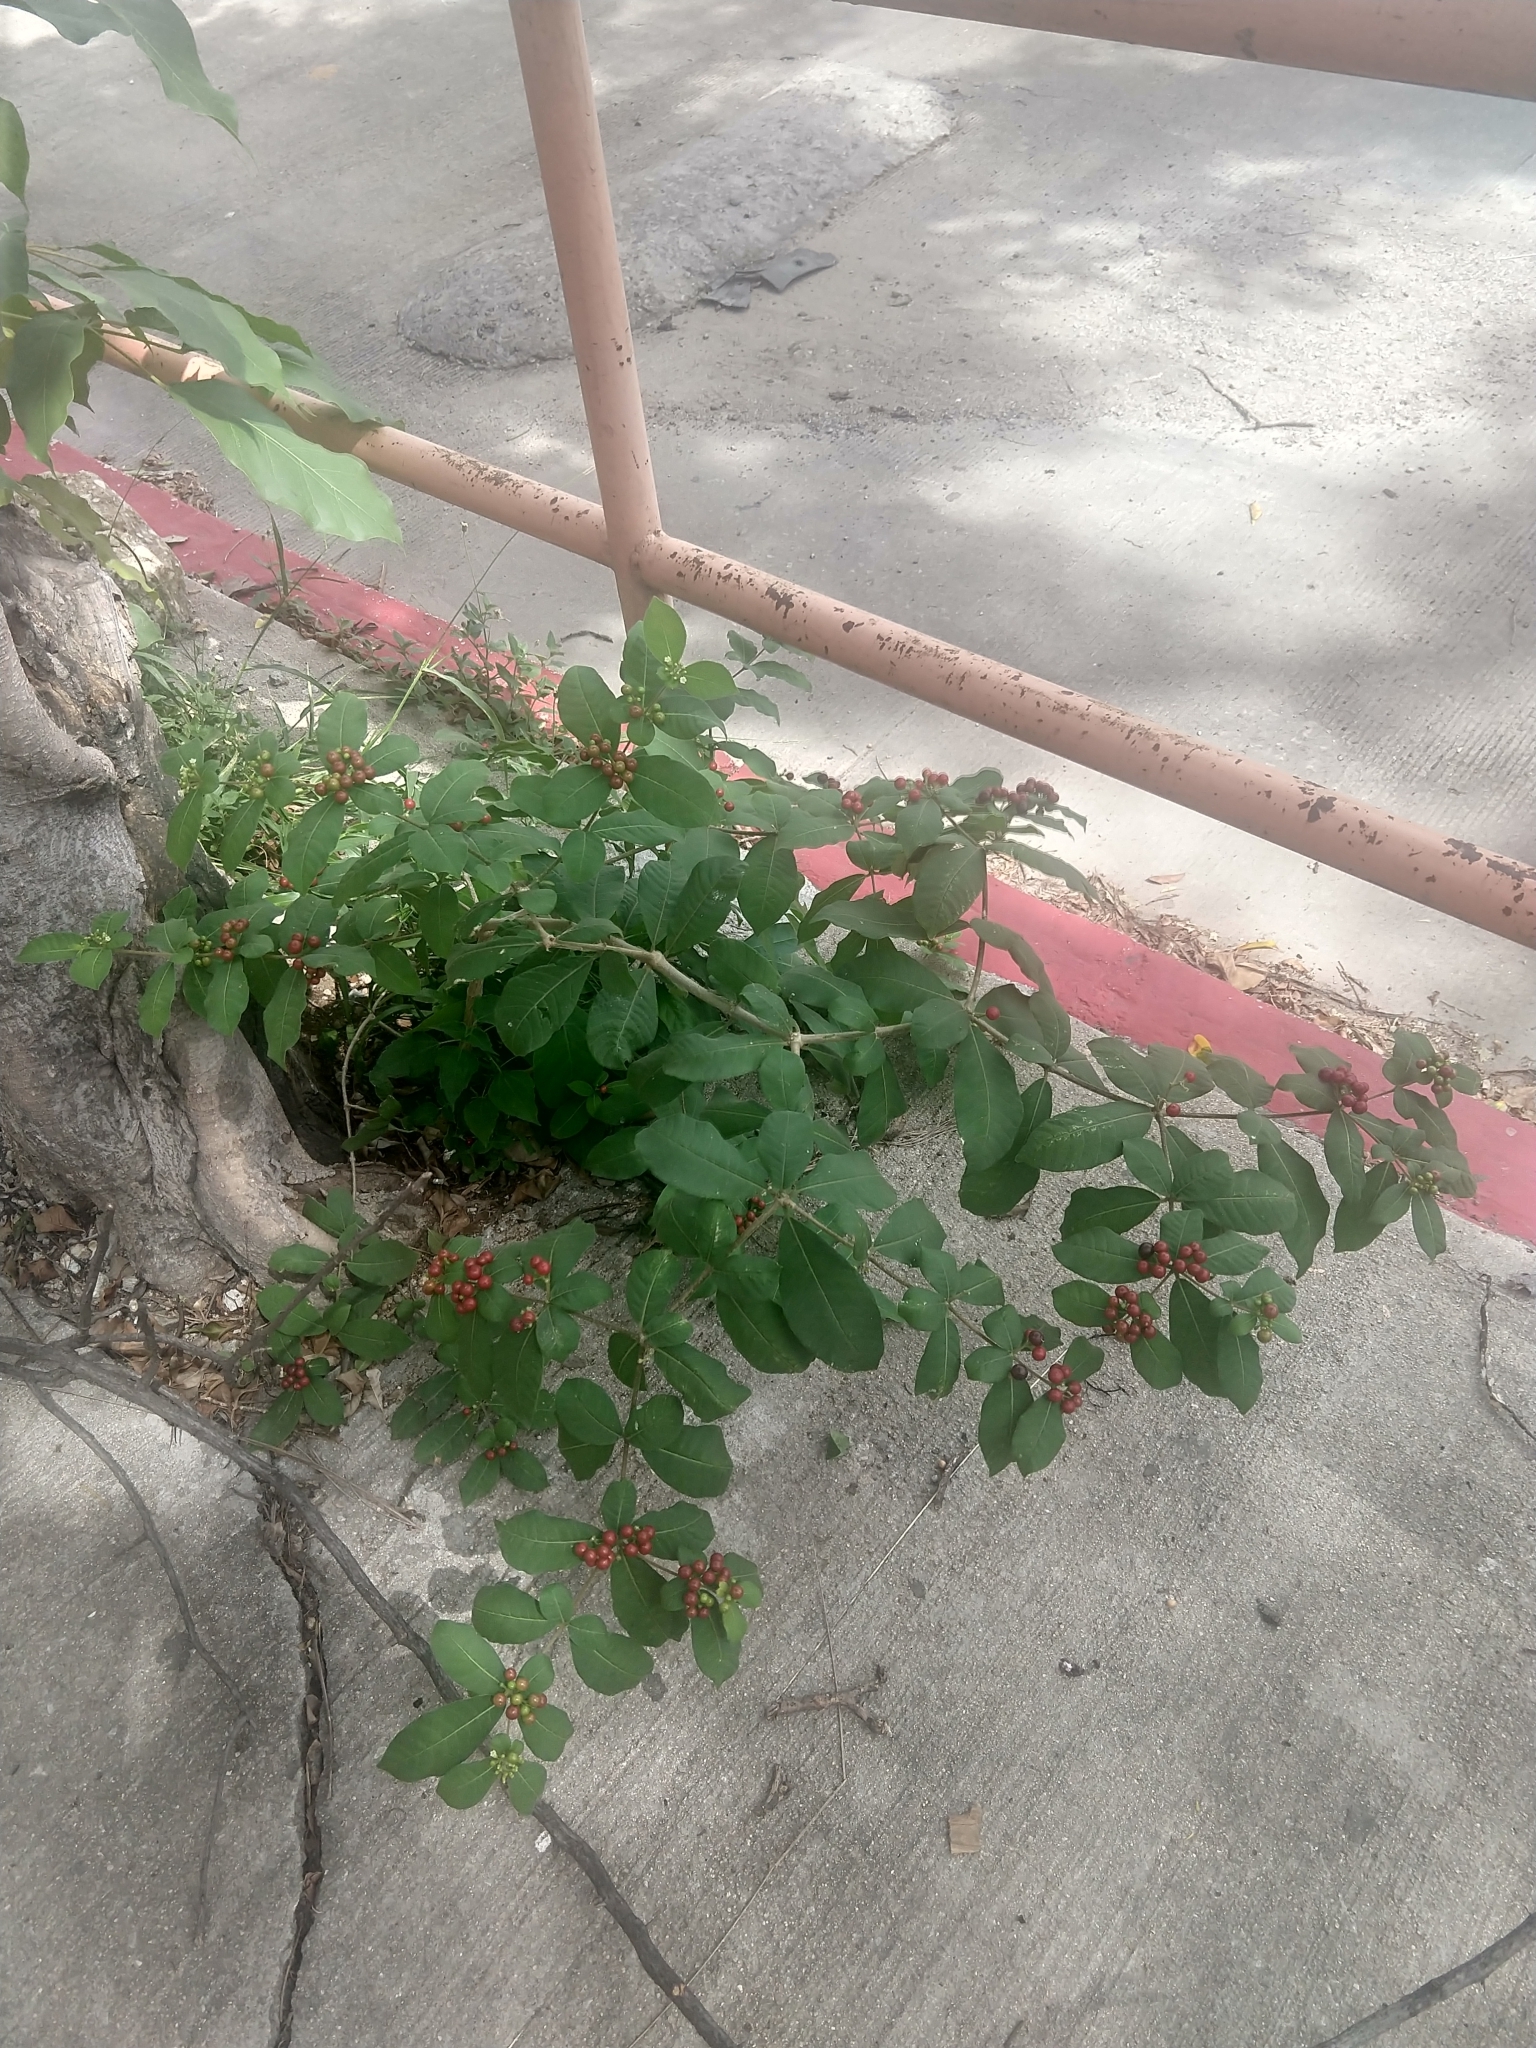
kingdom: Plantae
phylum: Tracheophyta
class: Magnoliopsida
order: Gentianales
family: Apocynaceae
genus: Rauvolfia
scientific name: Rauvolfia tetraphylla
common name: Four-leaf devil-pepper
